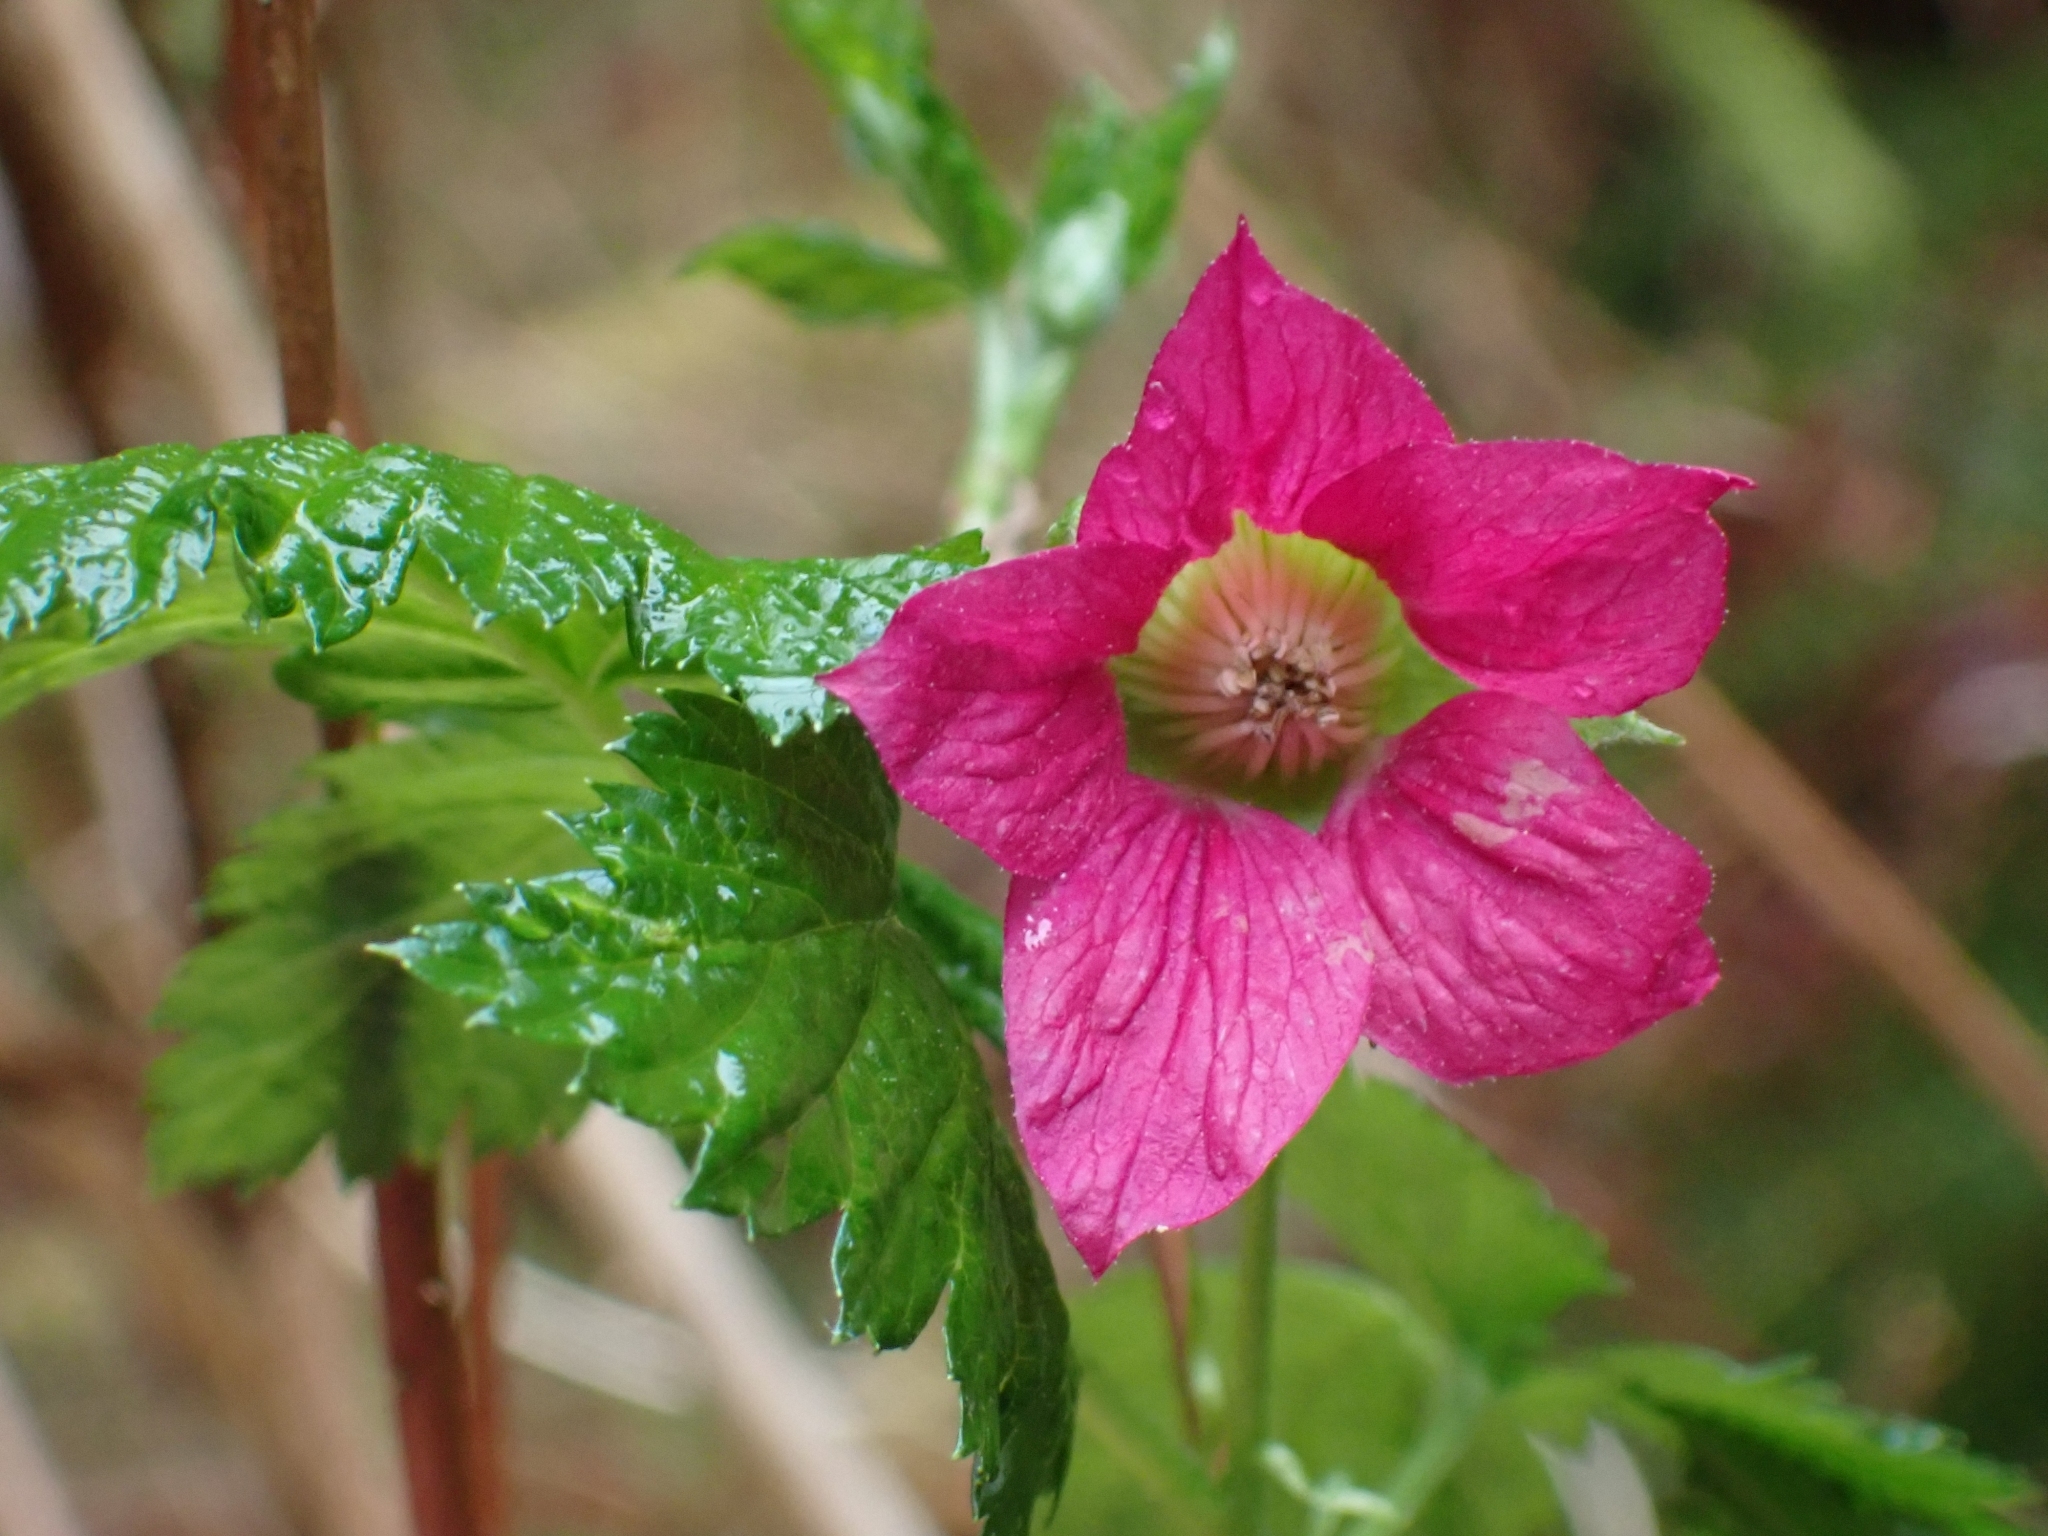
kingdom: Plantae
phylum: Tracheophyta
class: Magnoliopsida
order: Rosales
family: Rosaceae
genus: Rubus
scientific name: Rubus spectabilis
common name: Salmonberry
